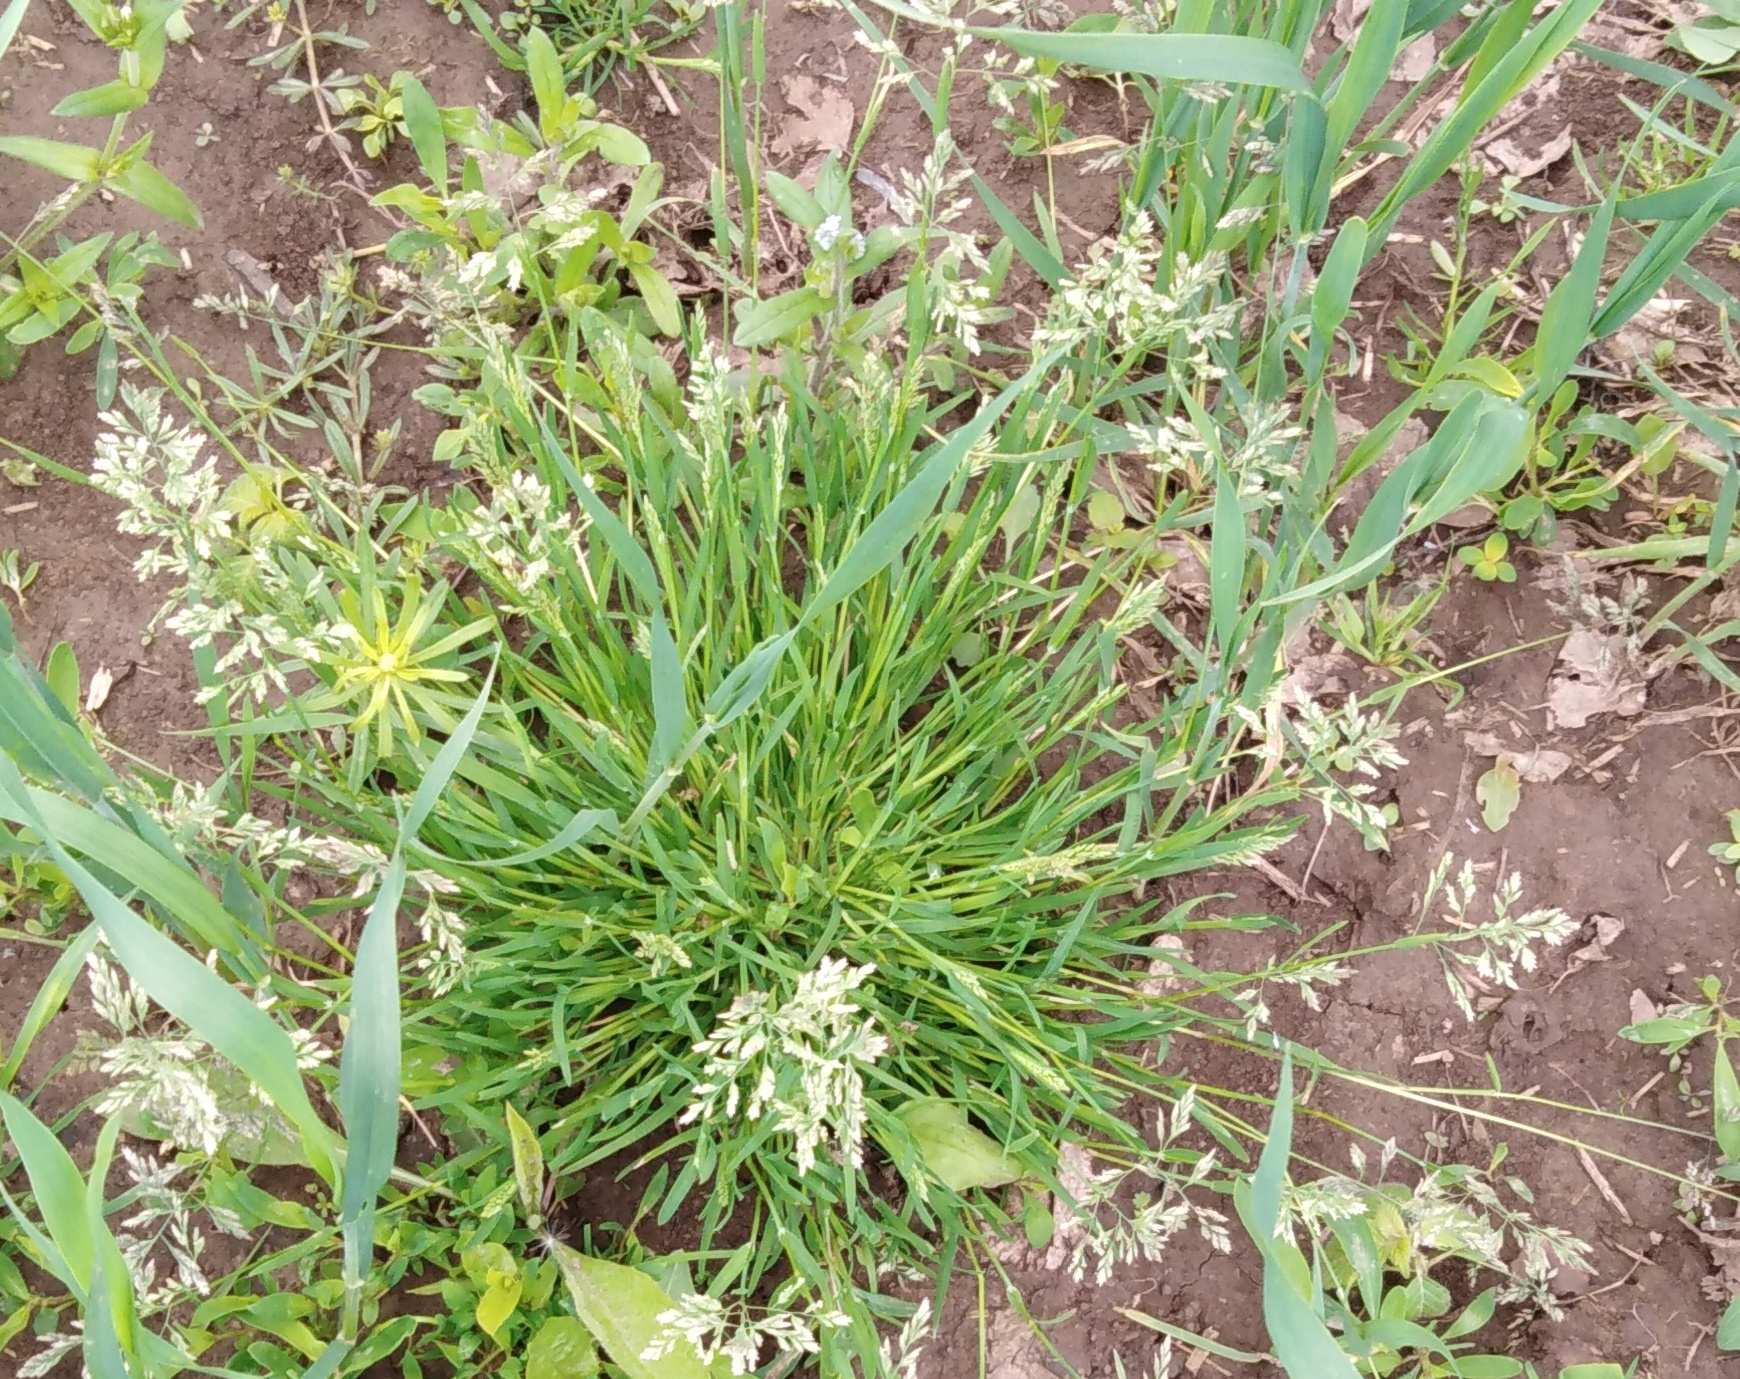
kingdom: Plantae
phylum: Tracheophyta
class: Liliopsida
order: Poales
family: Poaceae
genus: Poa
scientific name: Poa annua
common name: Annual bluegrass
